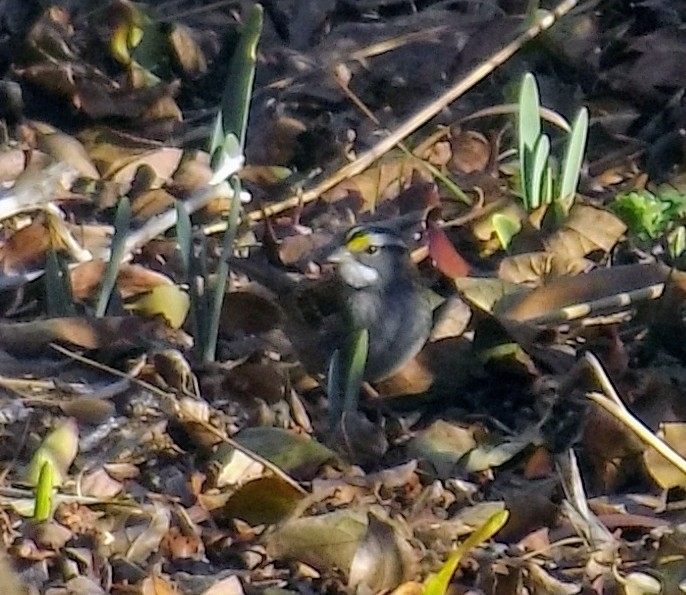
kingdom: Animalia
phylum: Chordata
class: Aves
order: Passeriformes
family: Passerellidae
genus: Zonotrichia
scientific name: Zonotrichia albicollis
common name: White-throated sparrow
